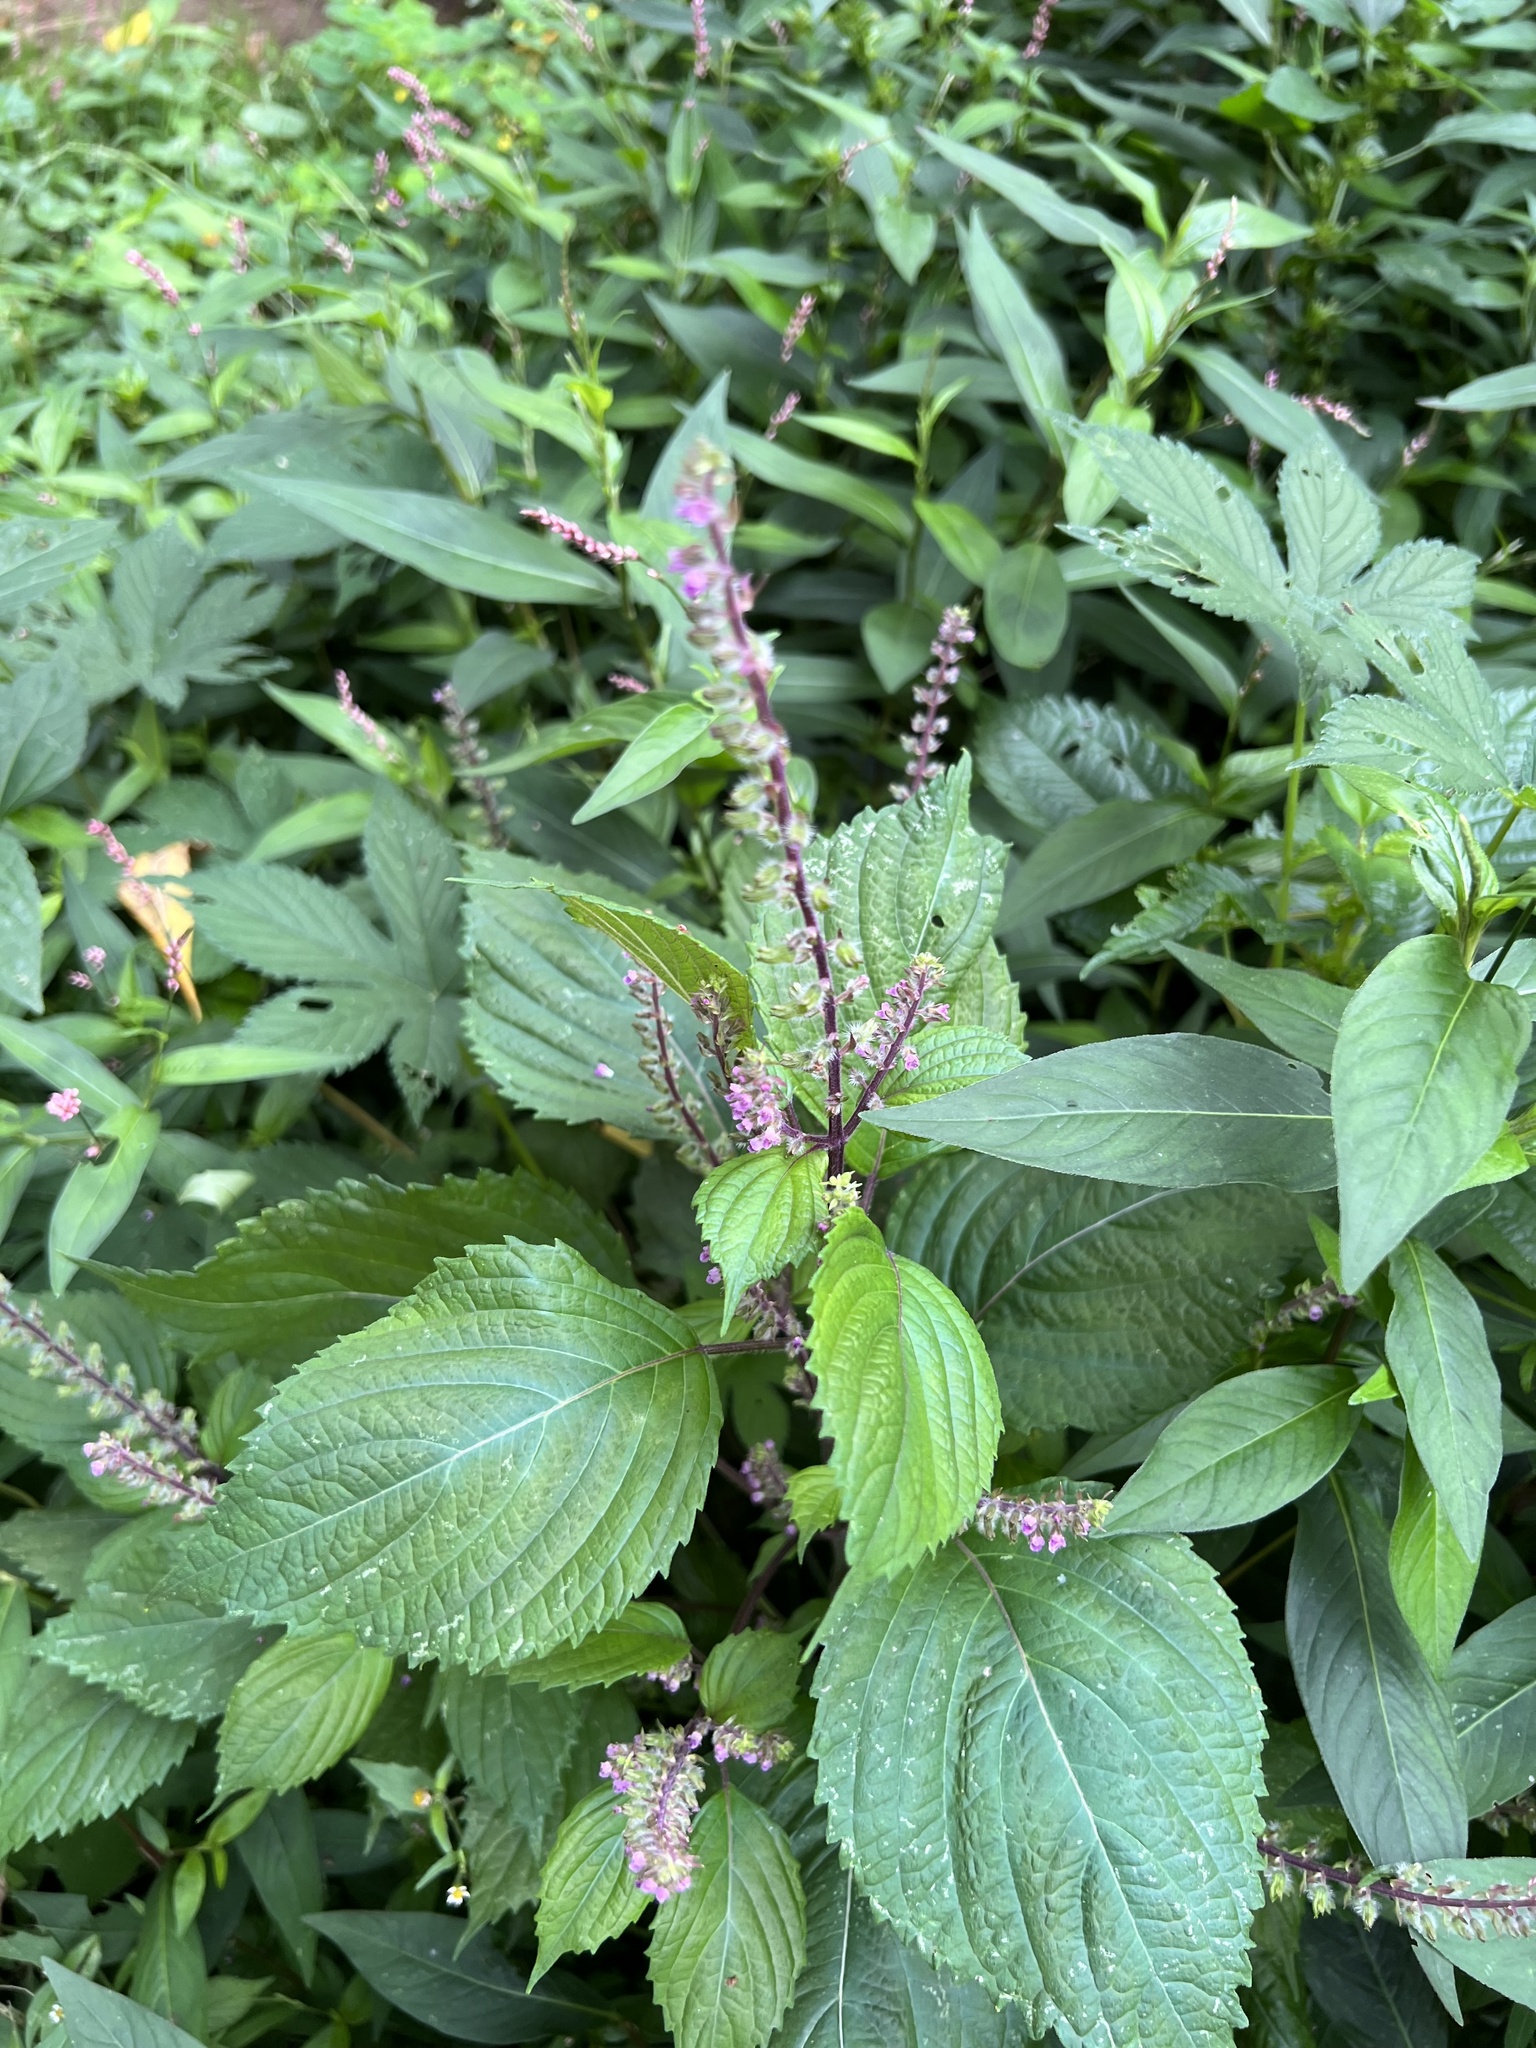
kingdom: Plantae
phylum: Tracheophyta
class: Magnoliopsida
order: Lamiales
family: Lamiaceae
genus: Perilla
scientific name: Perilla frutescens
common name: Perilla
